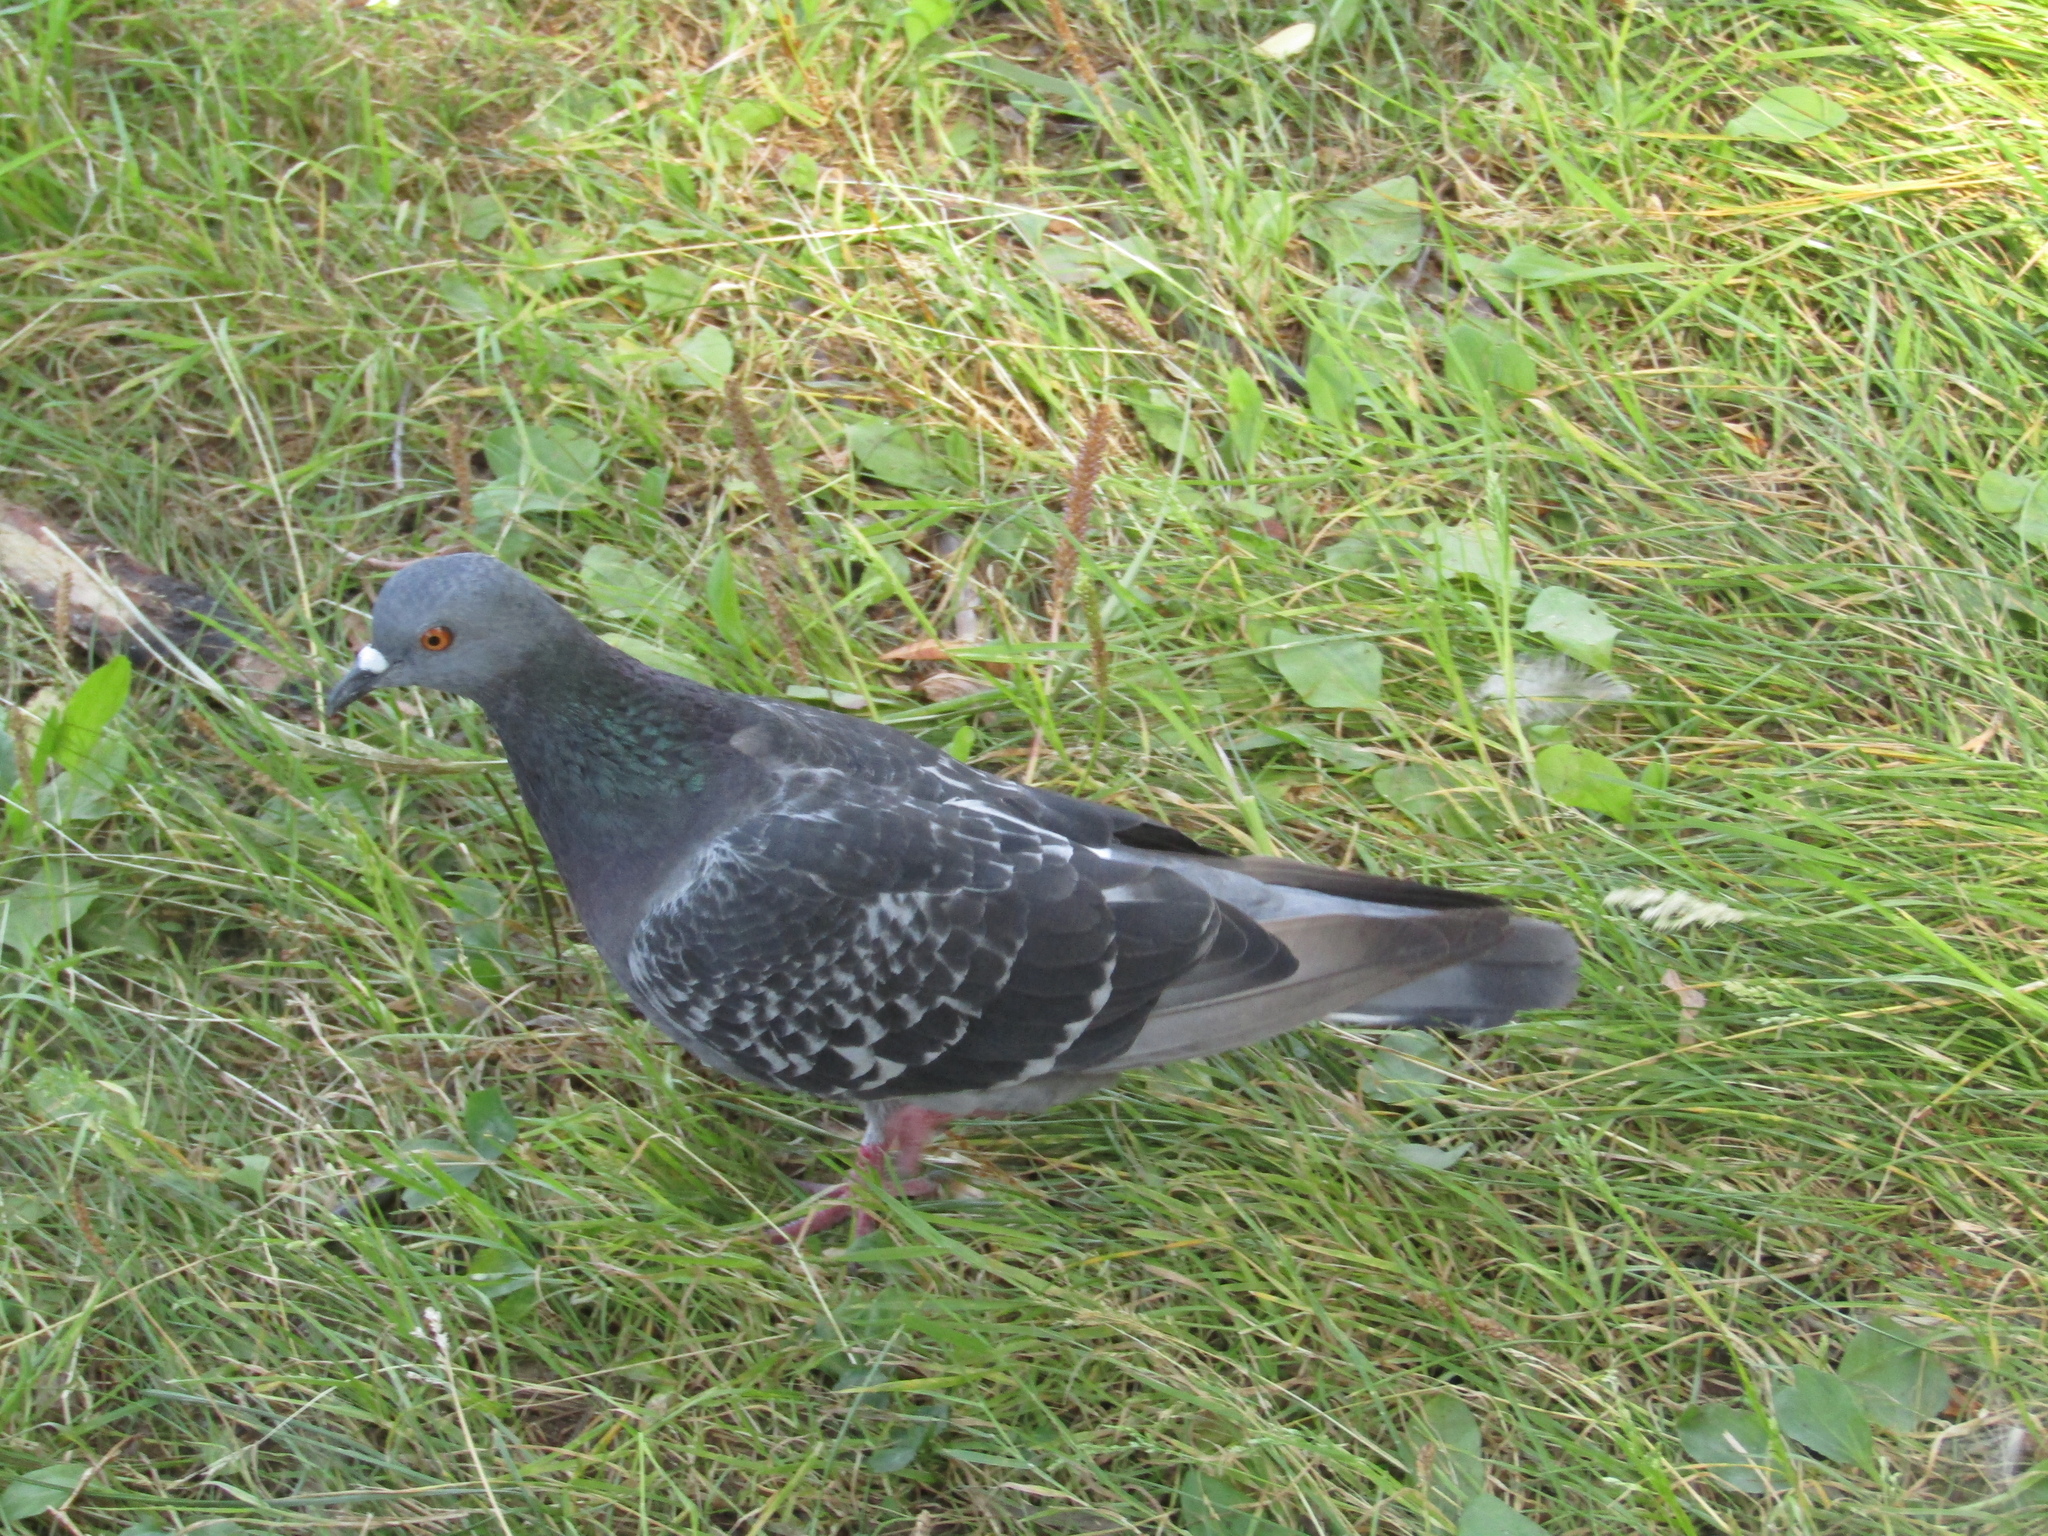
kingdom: Animalia
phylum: Chordata
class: Aves
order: Columbiformes
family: Columbidae
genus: Columba
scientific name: Columba livia
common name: Rock pigeon
